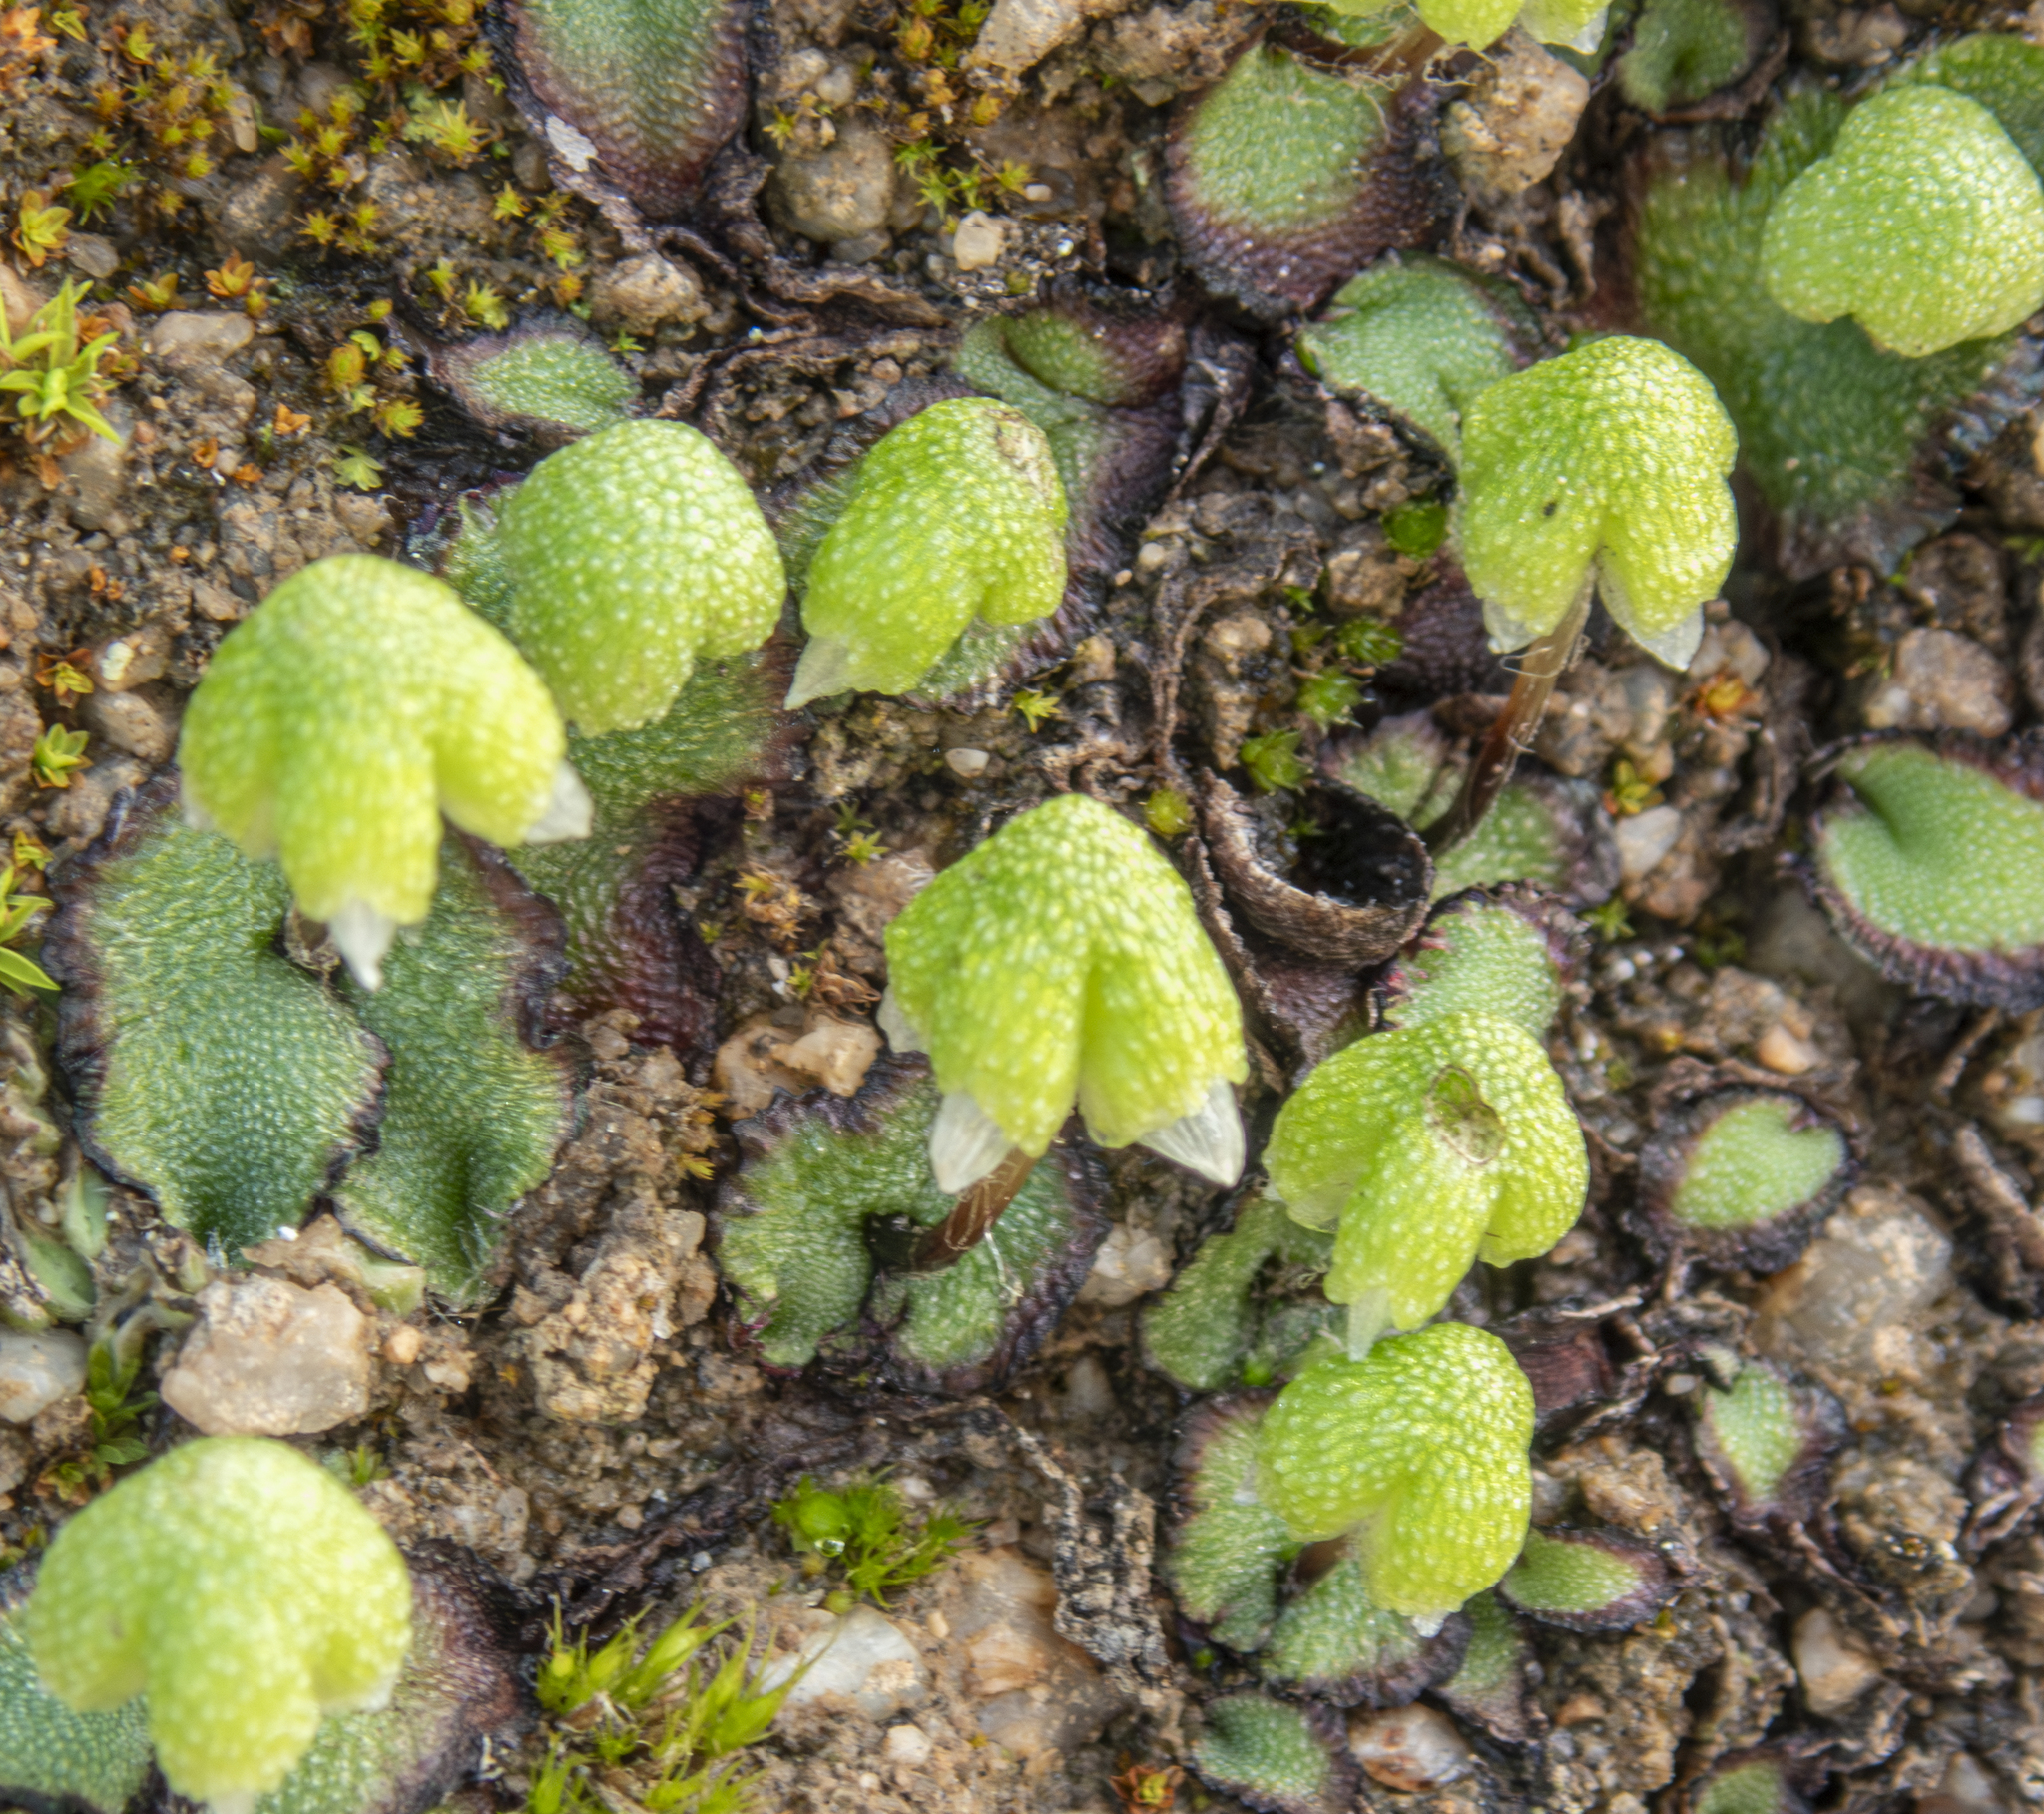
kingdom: Plantae
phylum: Marchantiophyta
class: Marchantiopsida
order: Marchantiales
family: Aytoniaceae
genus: Asterella
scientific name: Asterella californica
